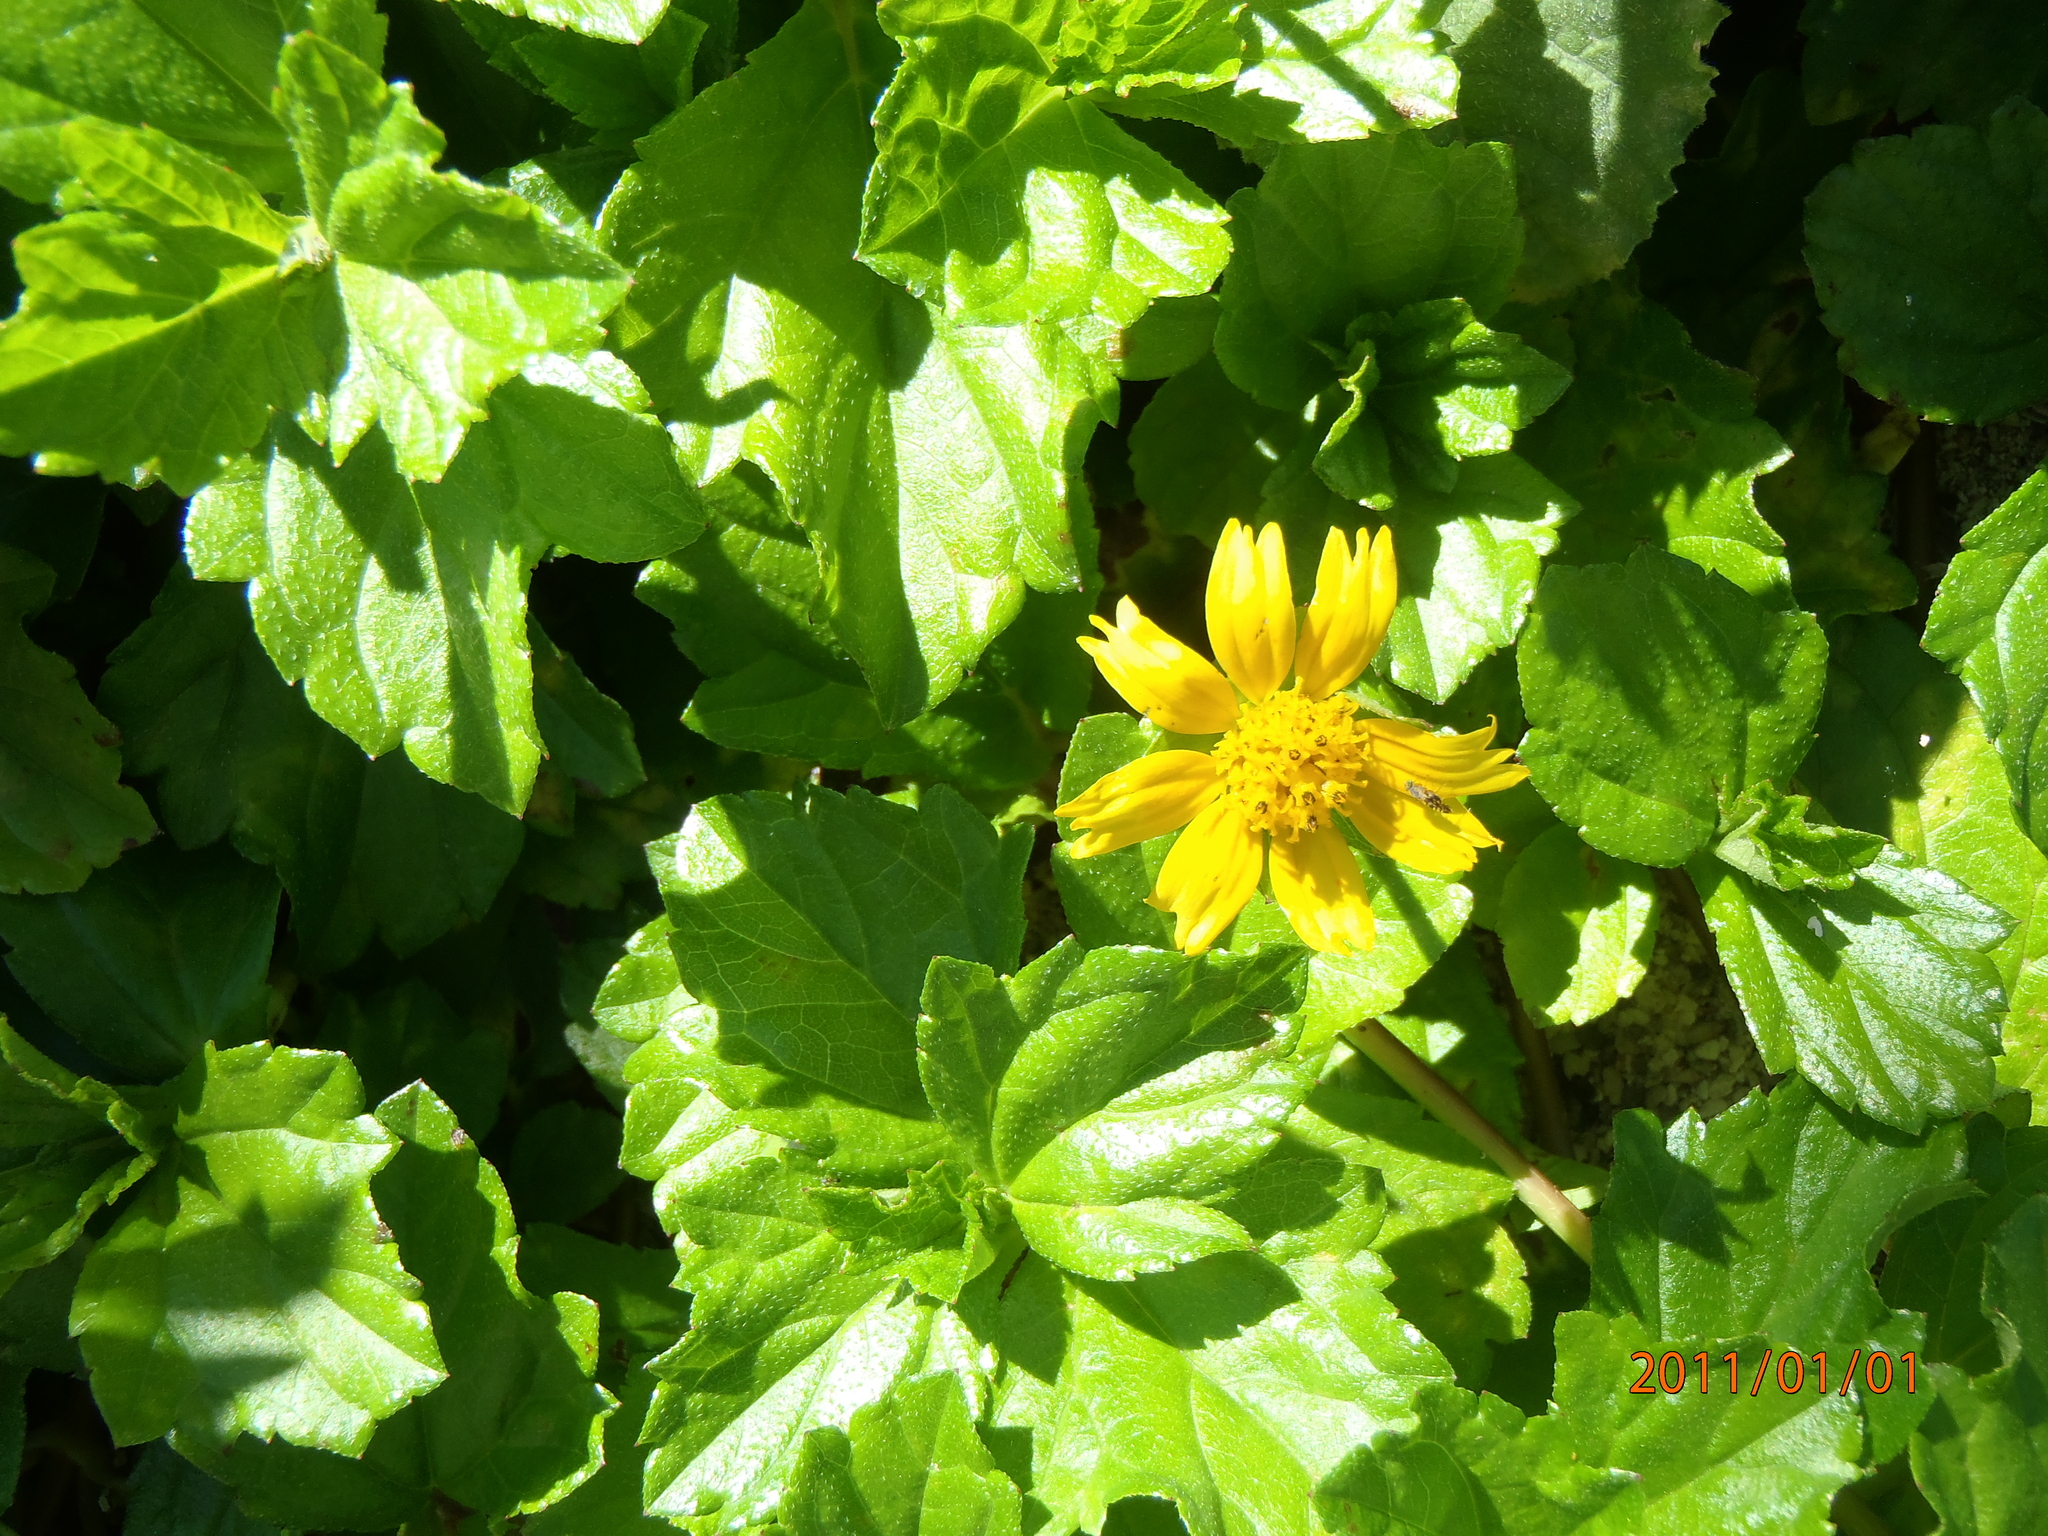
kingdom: Plantae
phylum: Tracheophyta
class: Magnoliopsida
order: Asterales
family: Asteraceae
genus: Sphagneticola
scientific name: Sphagneticola trilobata
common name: Bay biscayne creeping-oxeye
